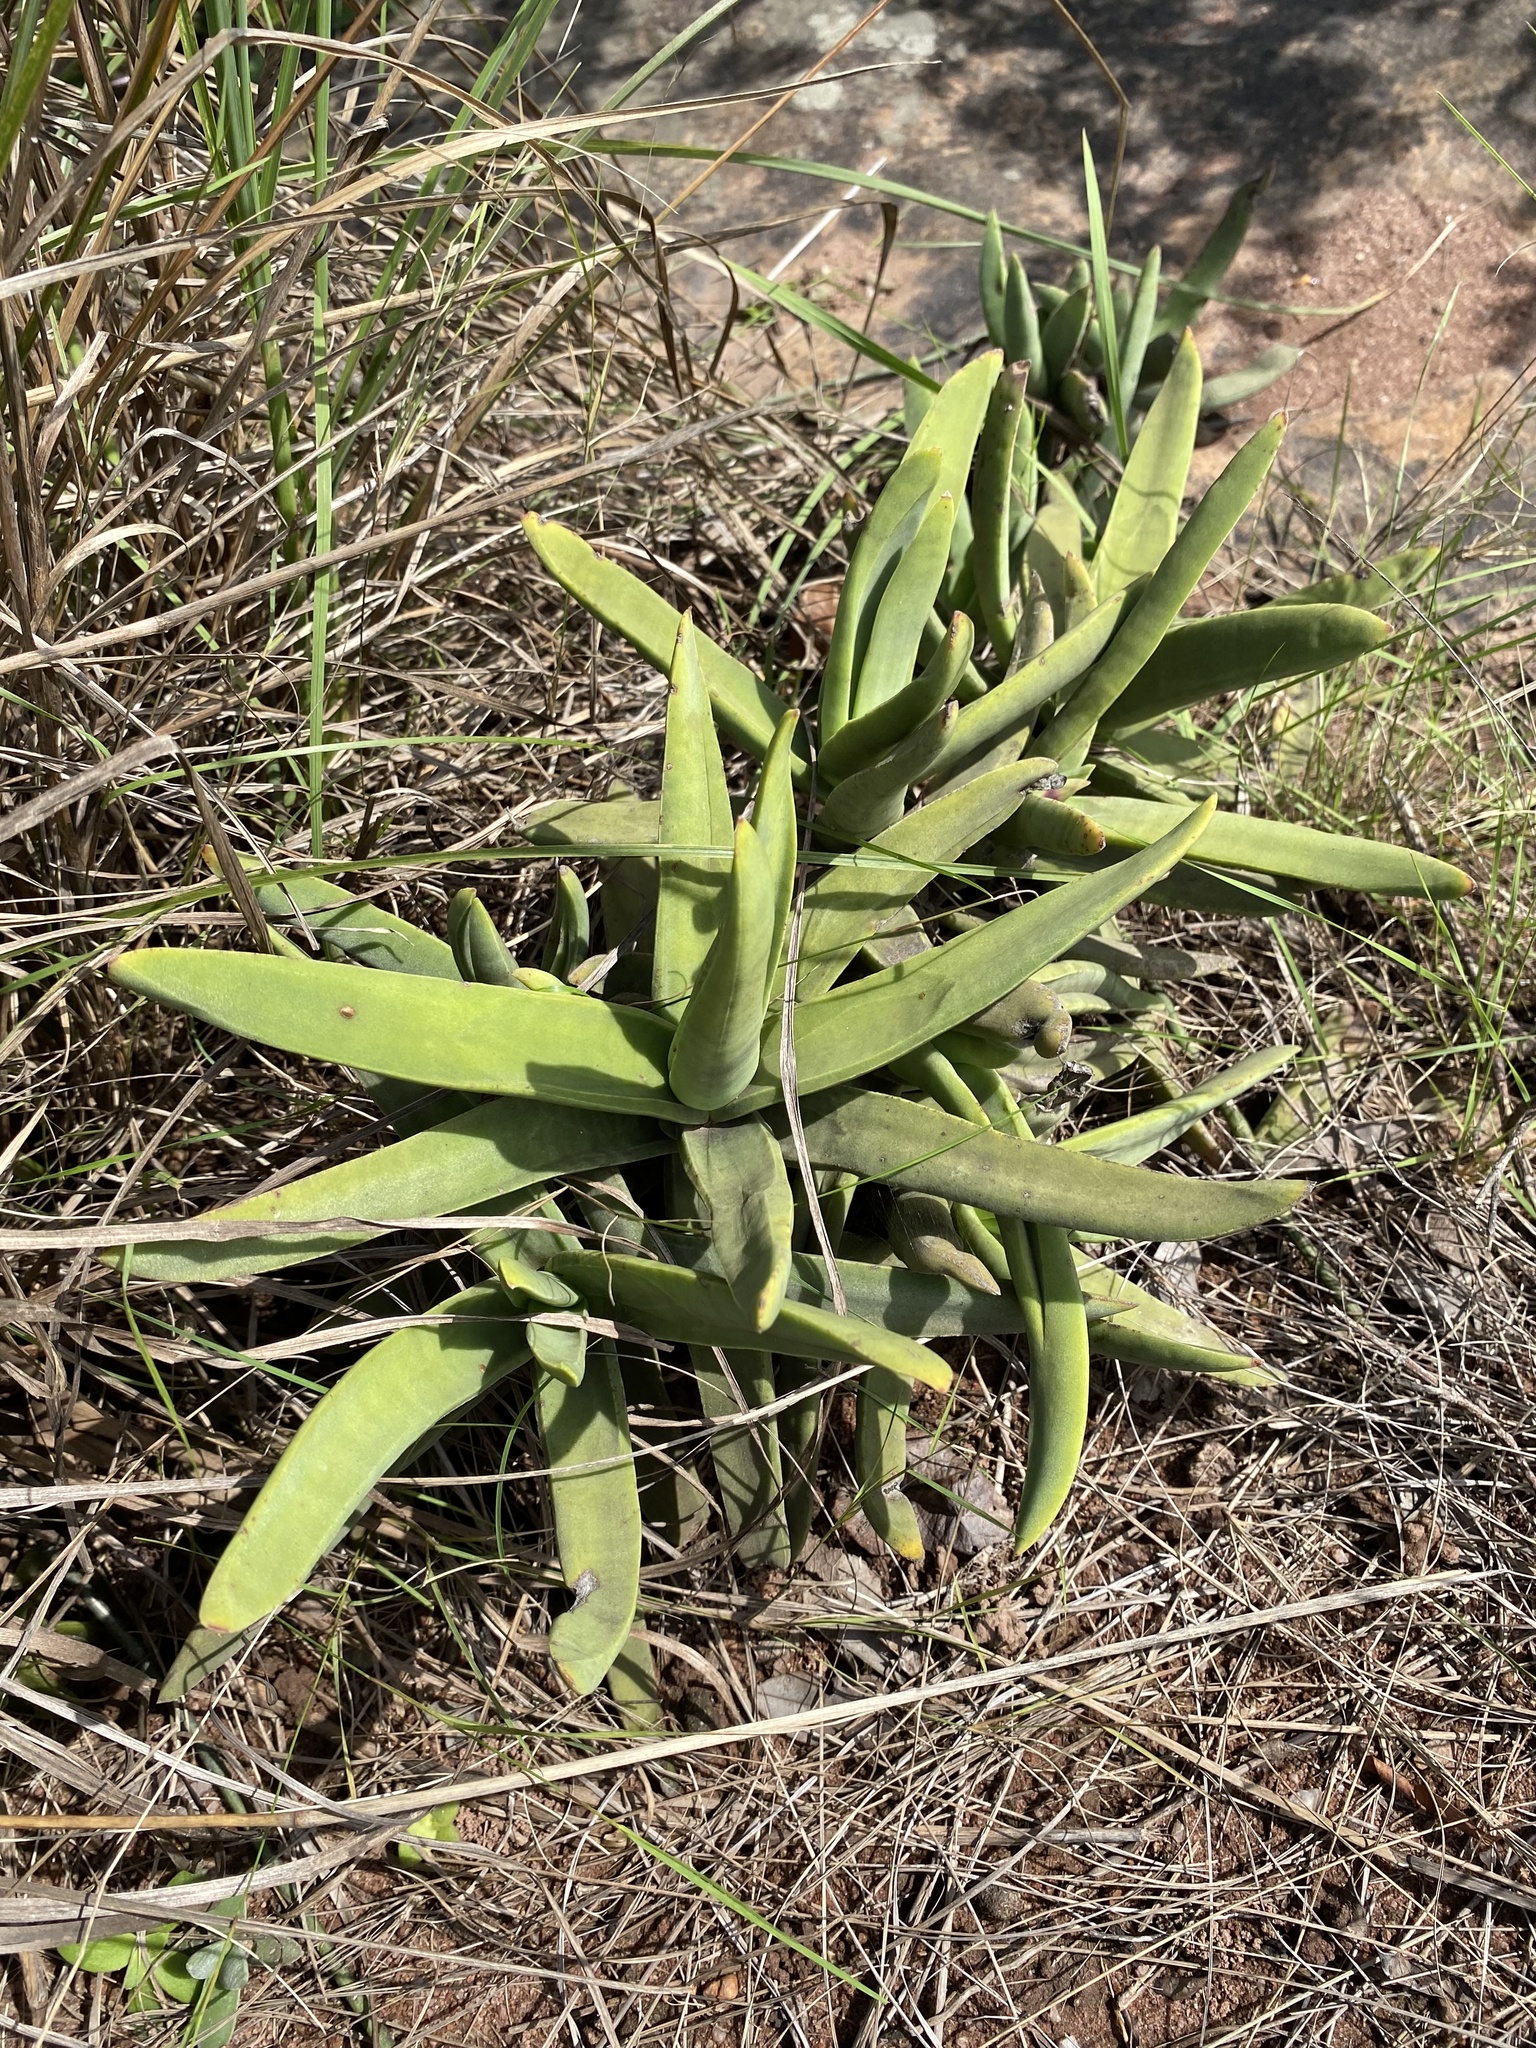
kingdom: Plantae
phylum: Tracheophyta
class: Magnoliopsida
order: Saxifragales
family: Crassulaceae
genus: Crassula
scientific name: Crassula perfoliata
